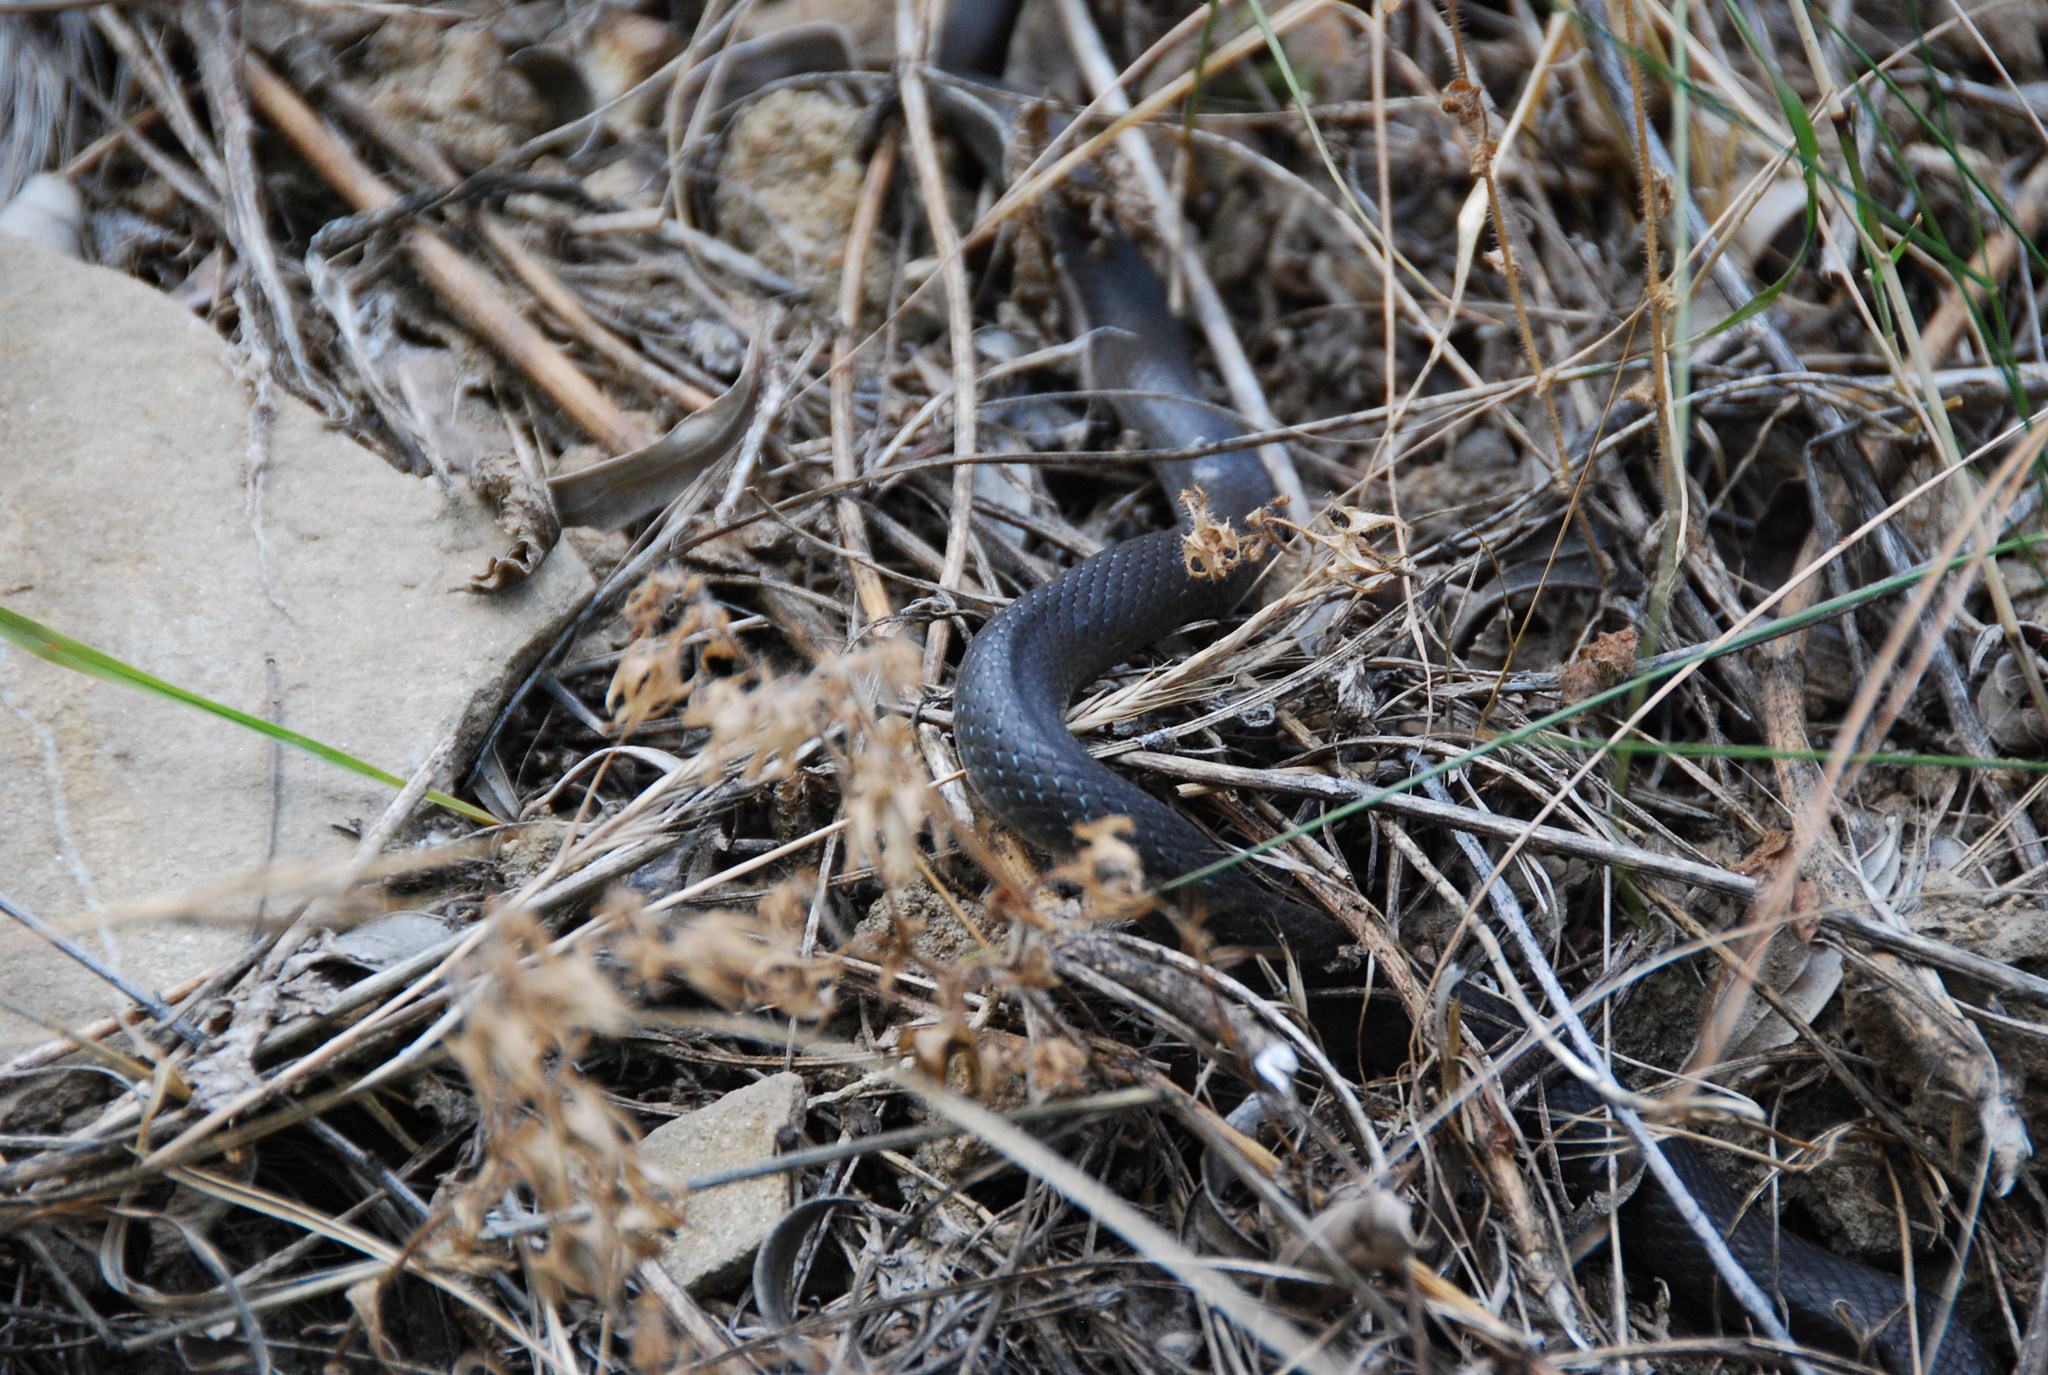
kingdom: Animalia
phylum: Chordata
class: Squamata
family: Colubridae
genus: Hierophis
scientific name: Hierophis viridiflavus
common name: Green whip snake
